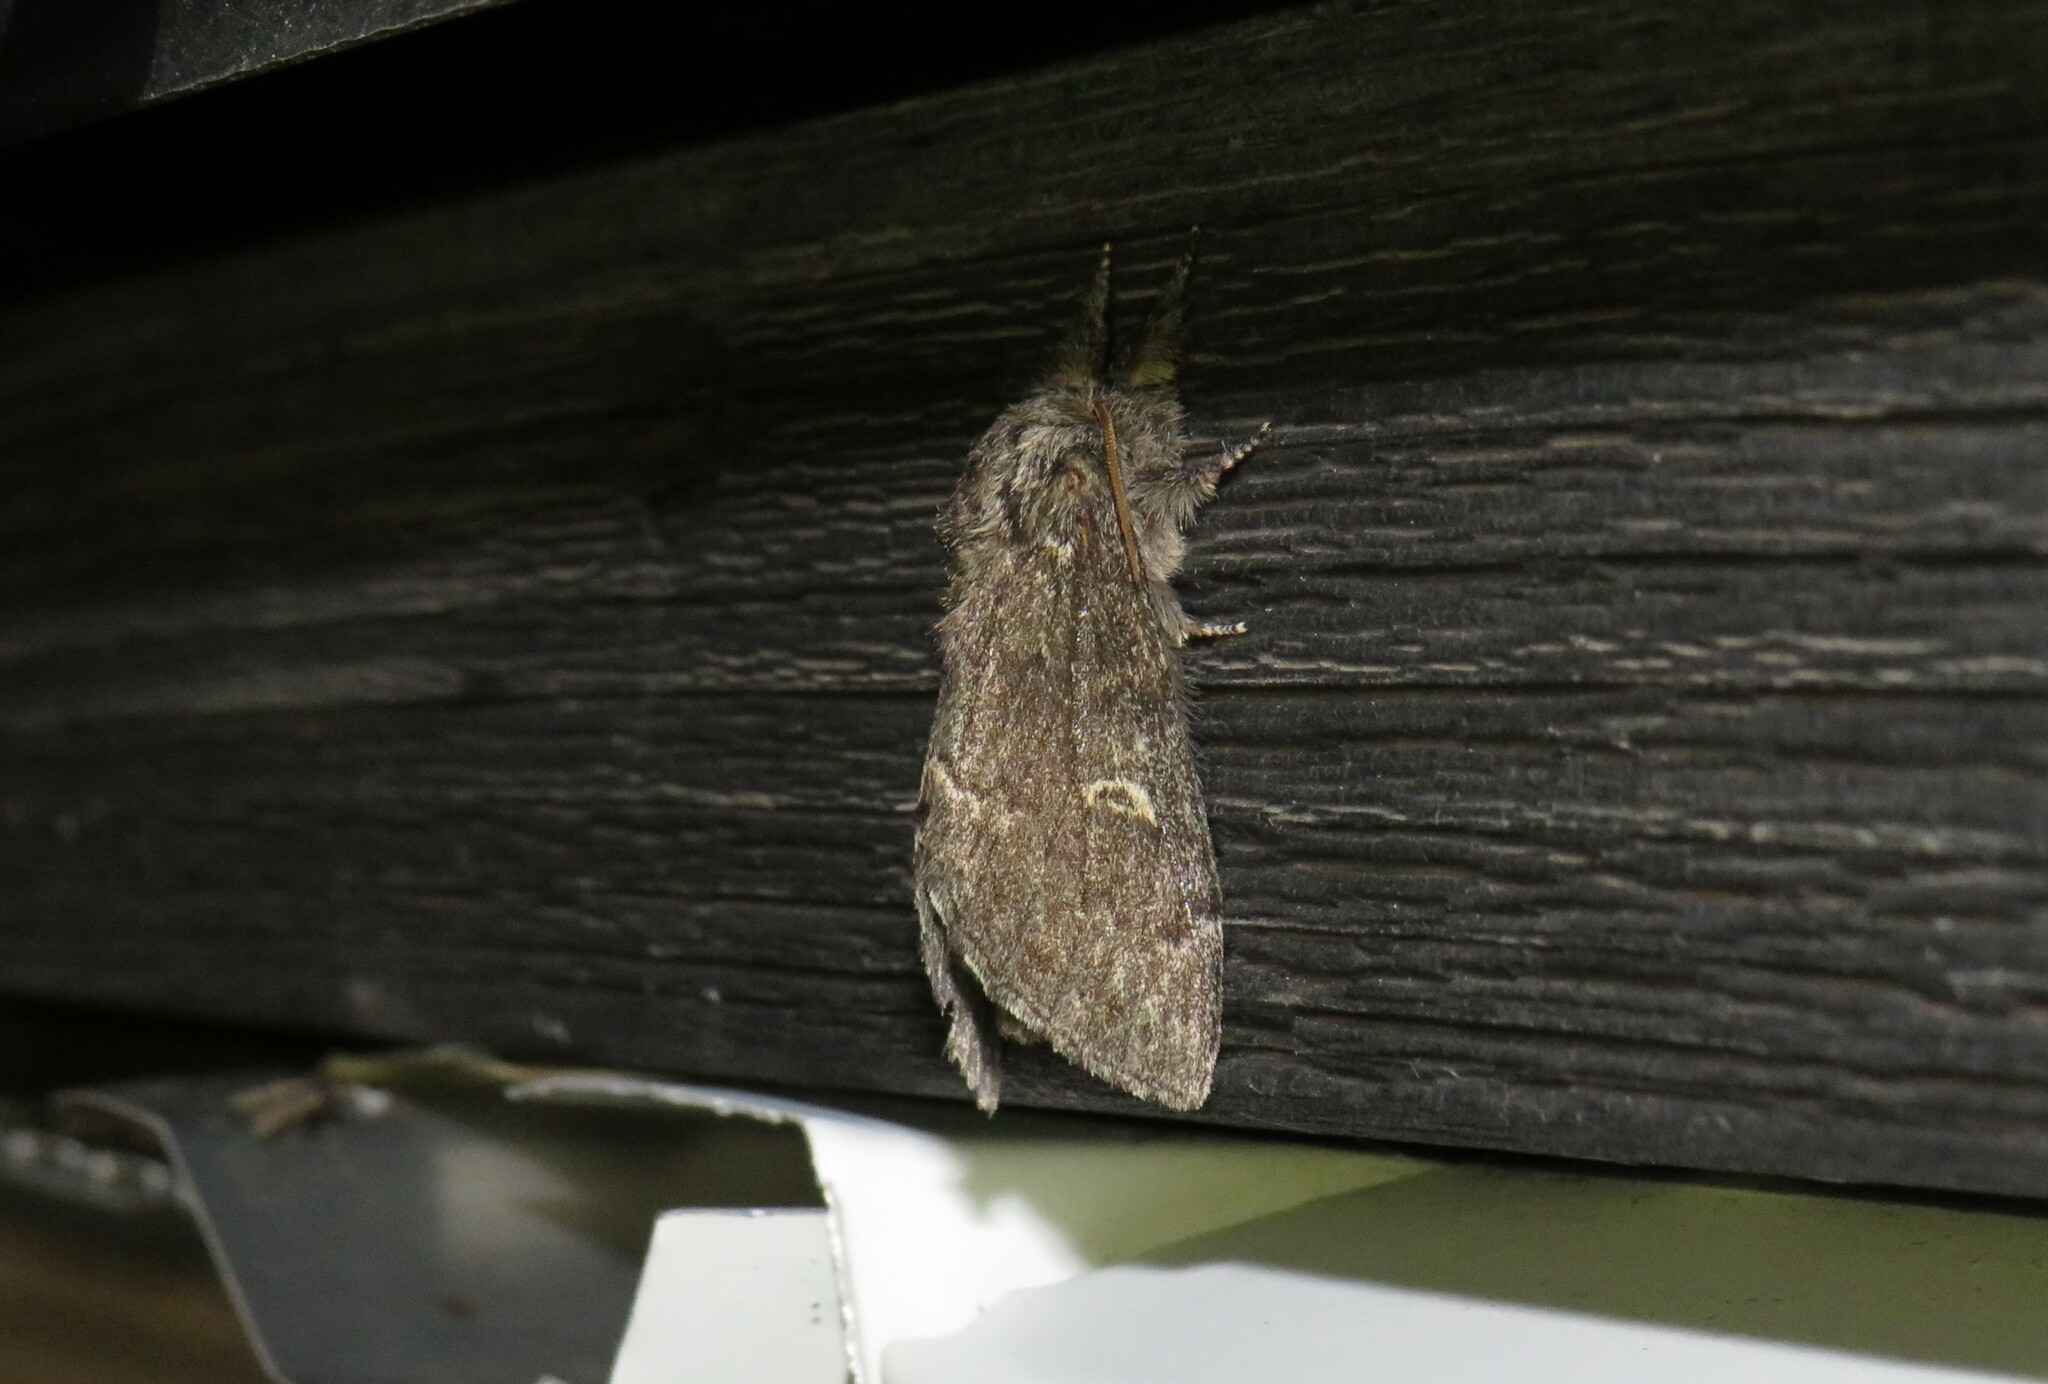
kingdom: Animalia
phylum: Arthropoda
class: Insecta
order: Lepidoptera
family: Notodontidae
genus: Notodonta
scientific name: Notodonta torva
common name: Large dark prominent
